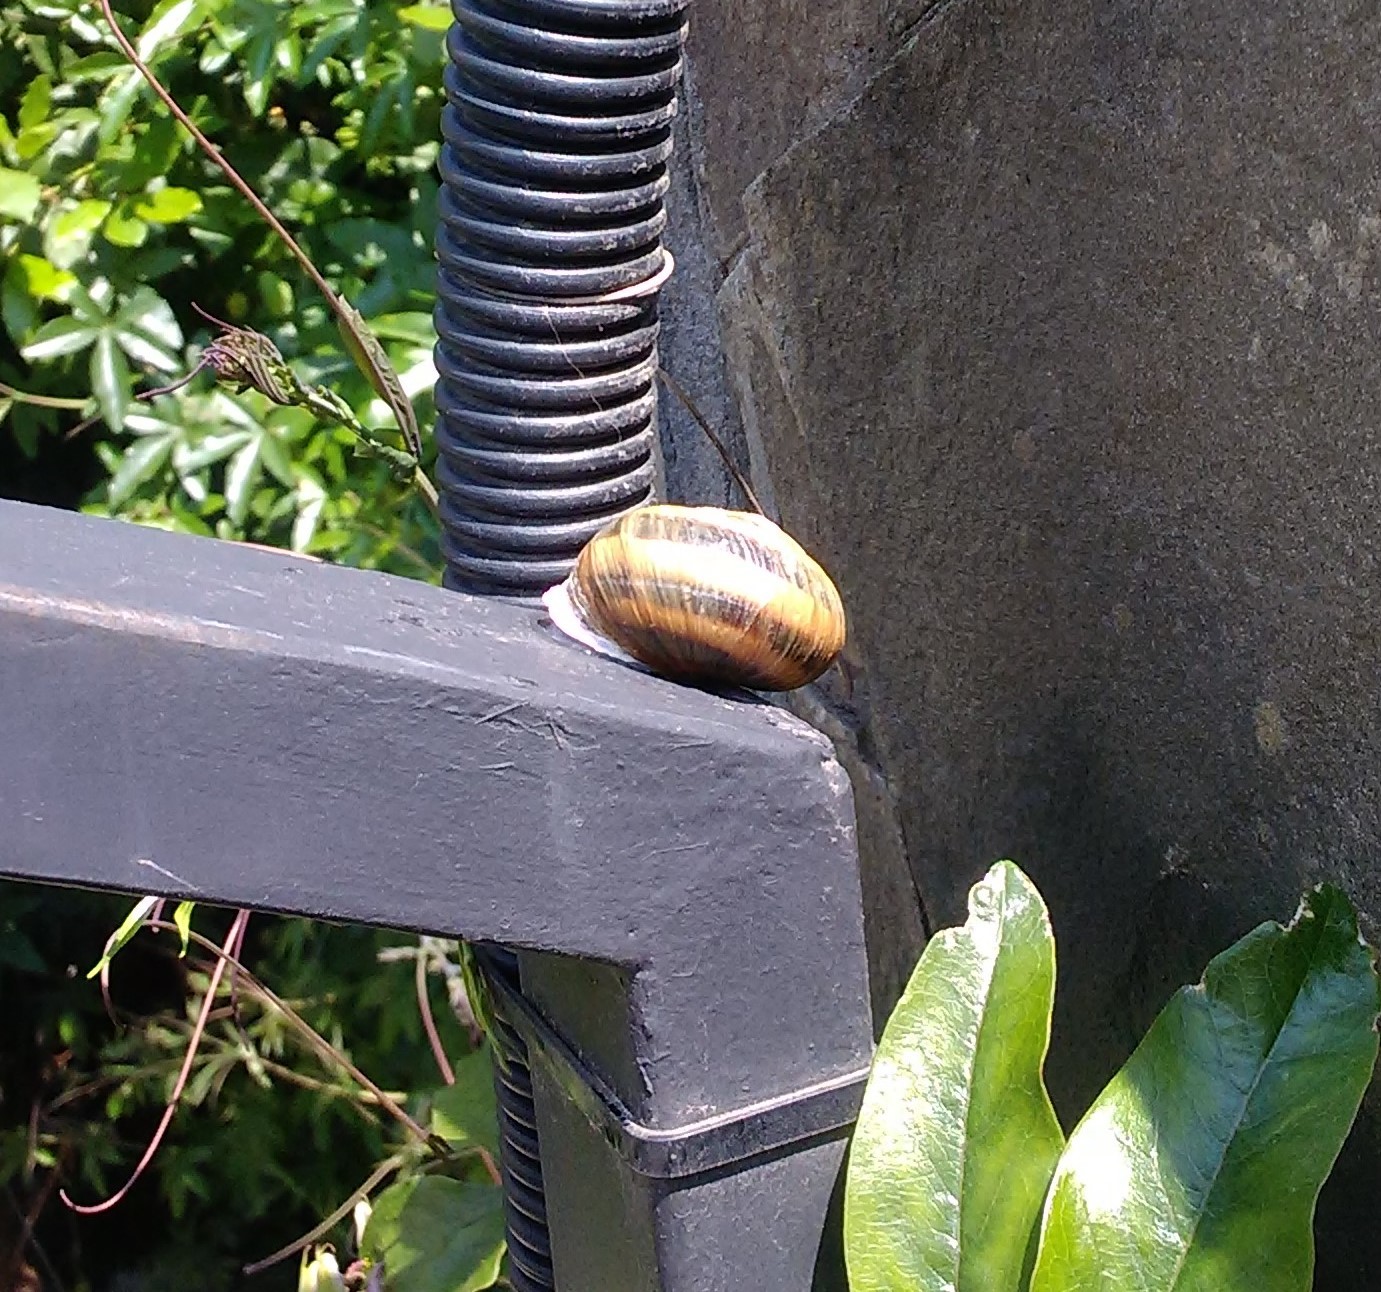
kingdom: Animalia
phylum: Mollusca
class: Gastropoda
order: Stylommatophora
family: Helicidae
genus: Caucasotachea
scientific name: Caucasotachea atrolabiata
